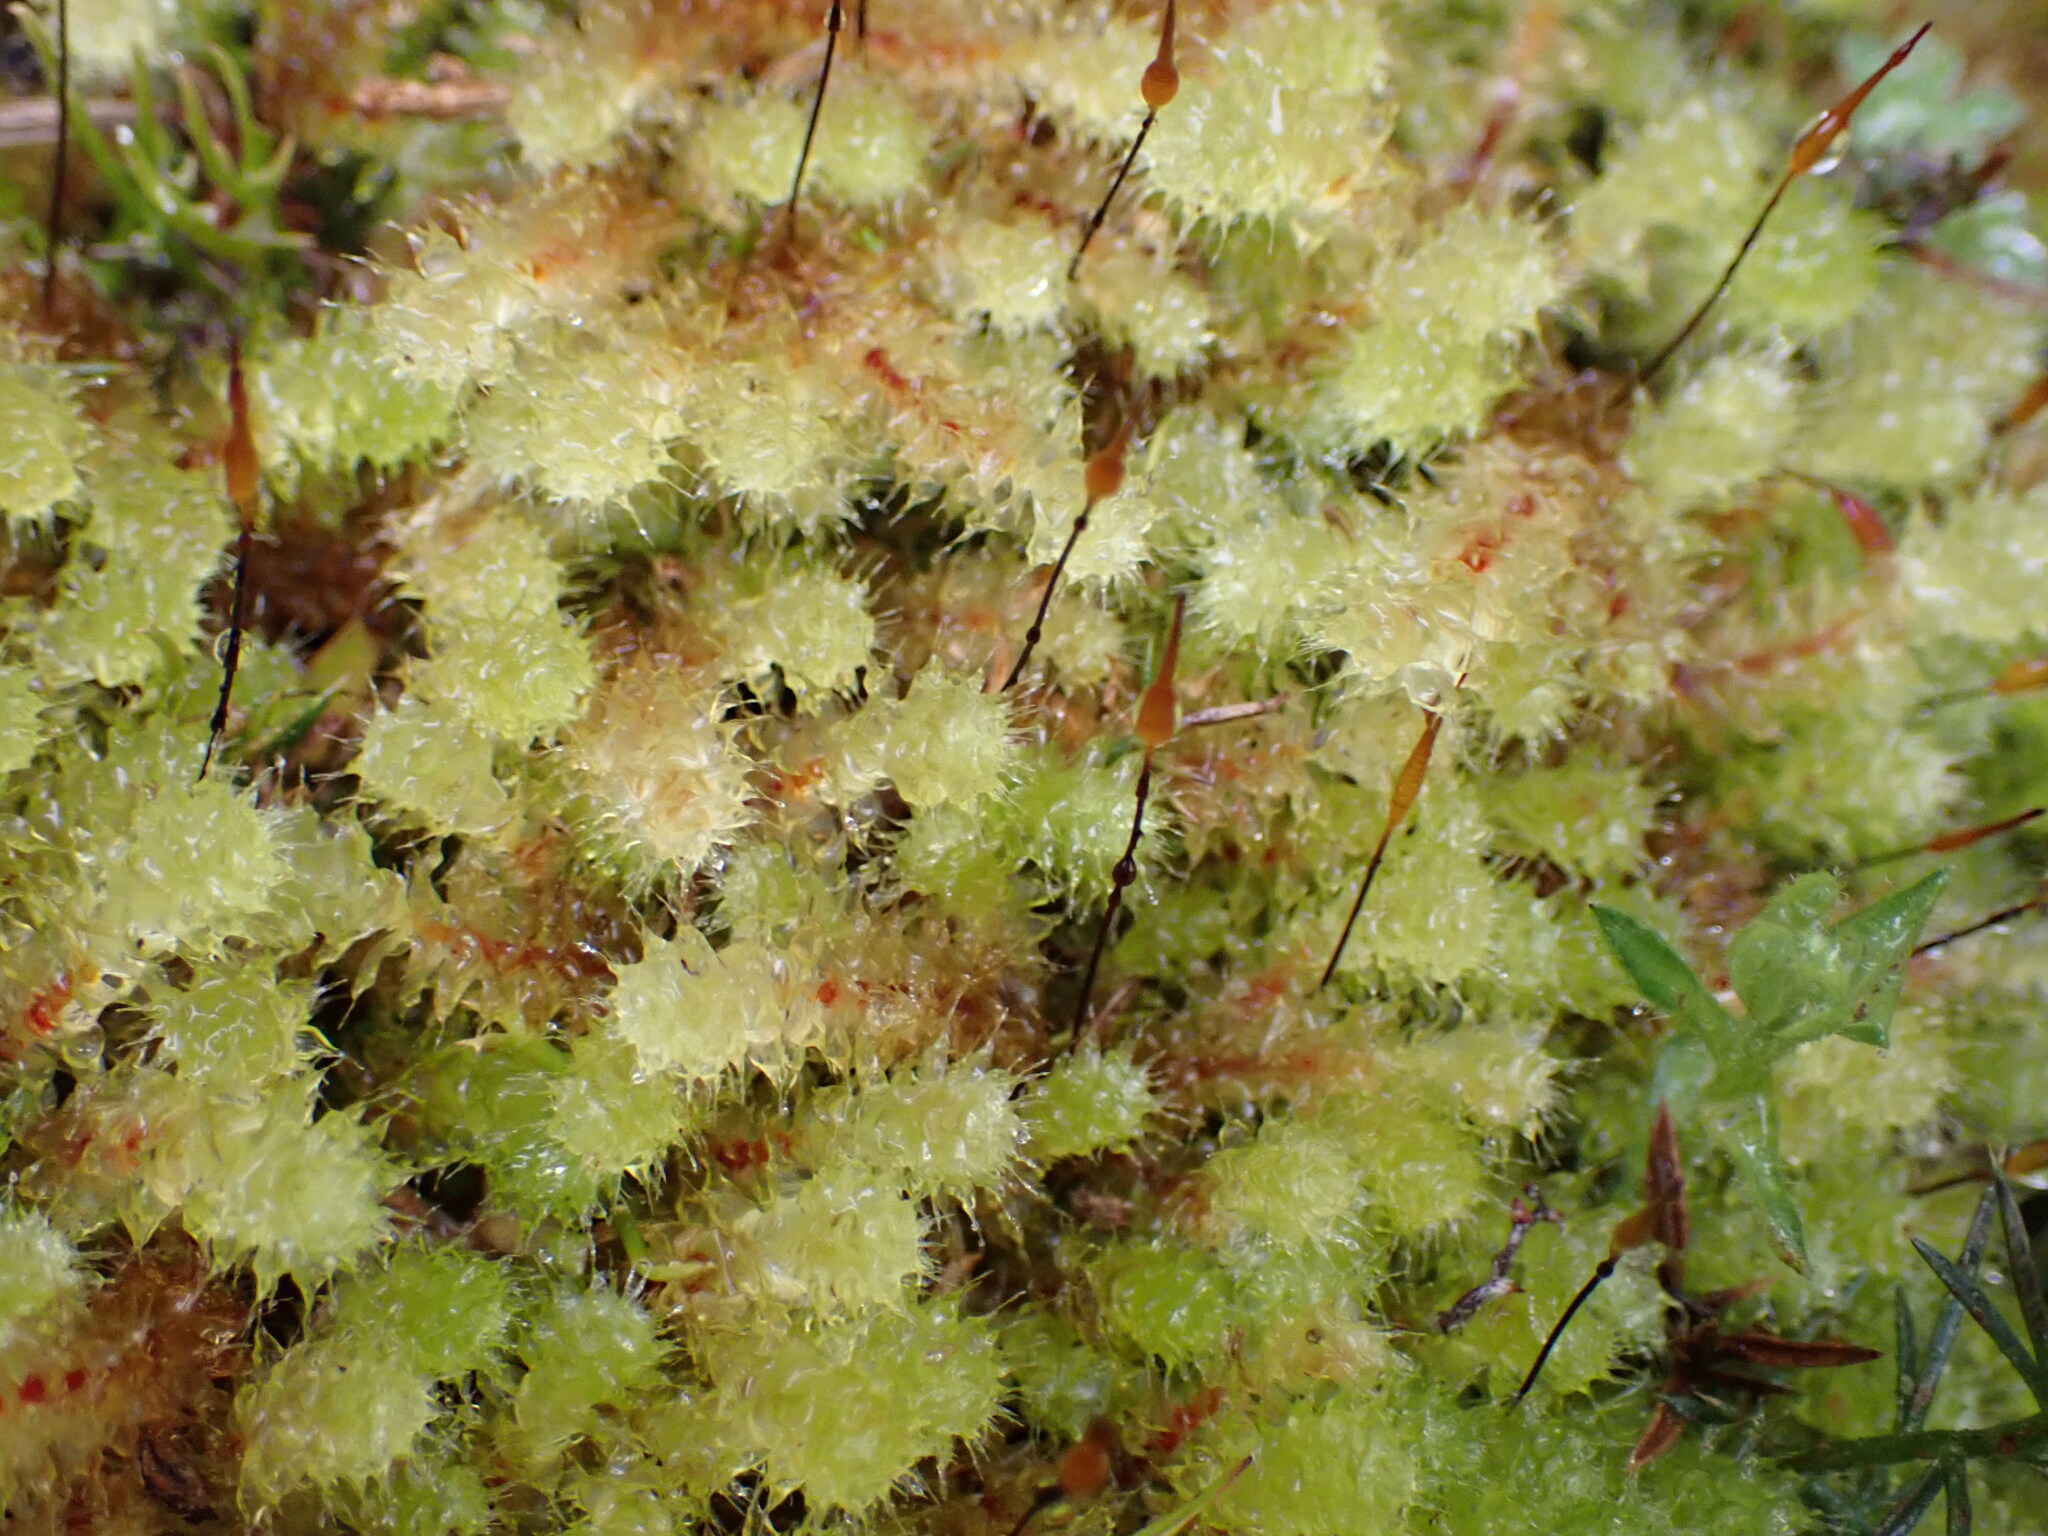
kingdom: Plantae
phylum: Bryophyta
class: Bryopsida
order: Ptychomniales
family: Ptychomniaceae
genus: Ptychomnion
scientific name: Ptychomnion aciculare
